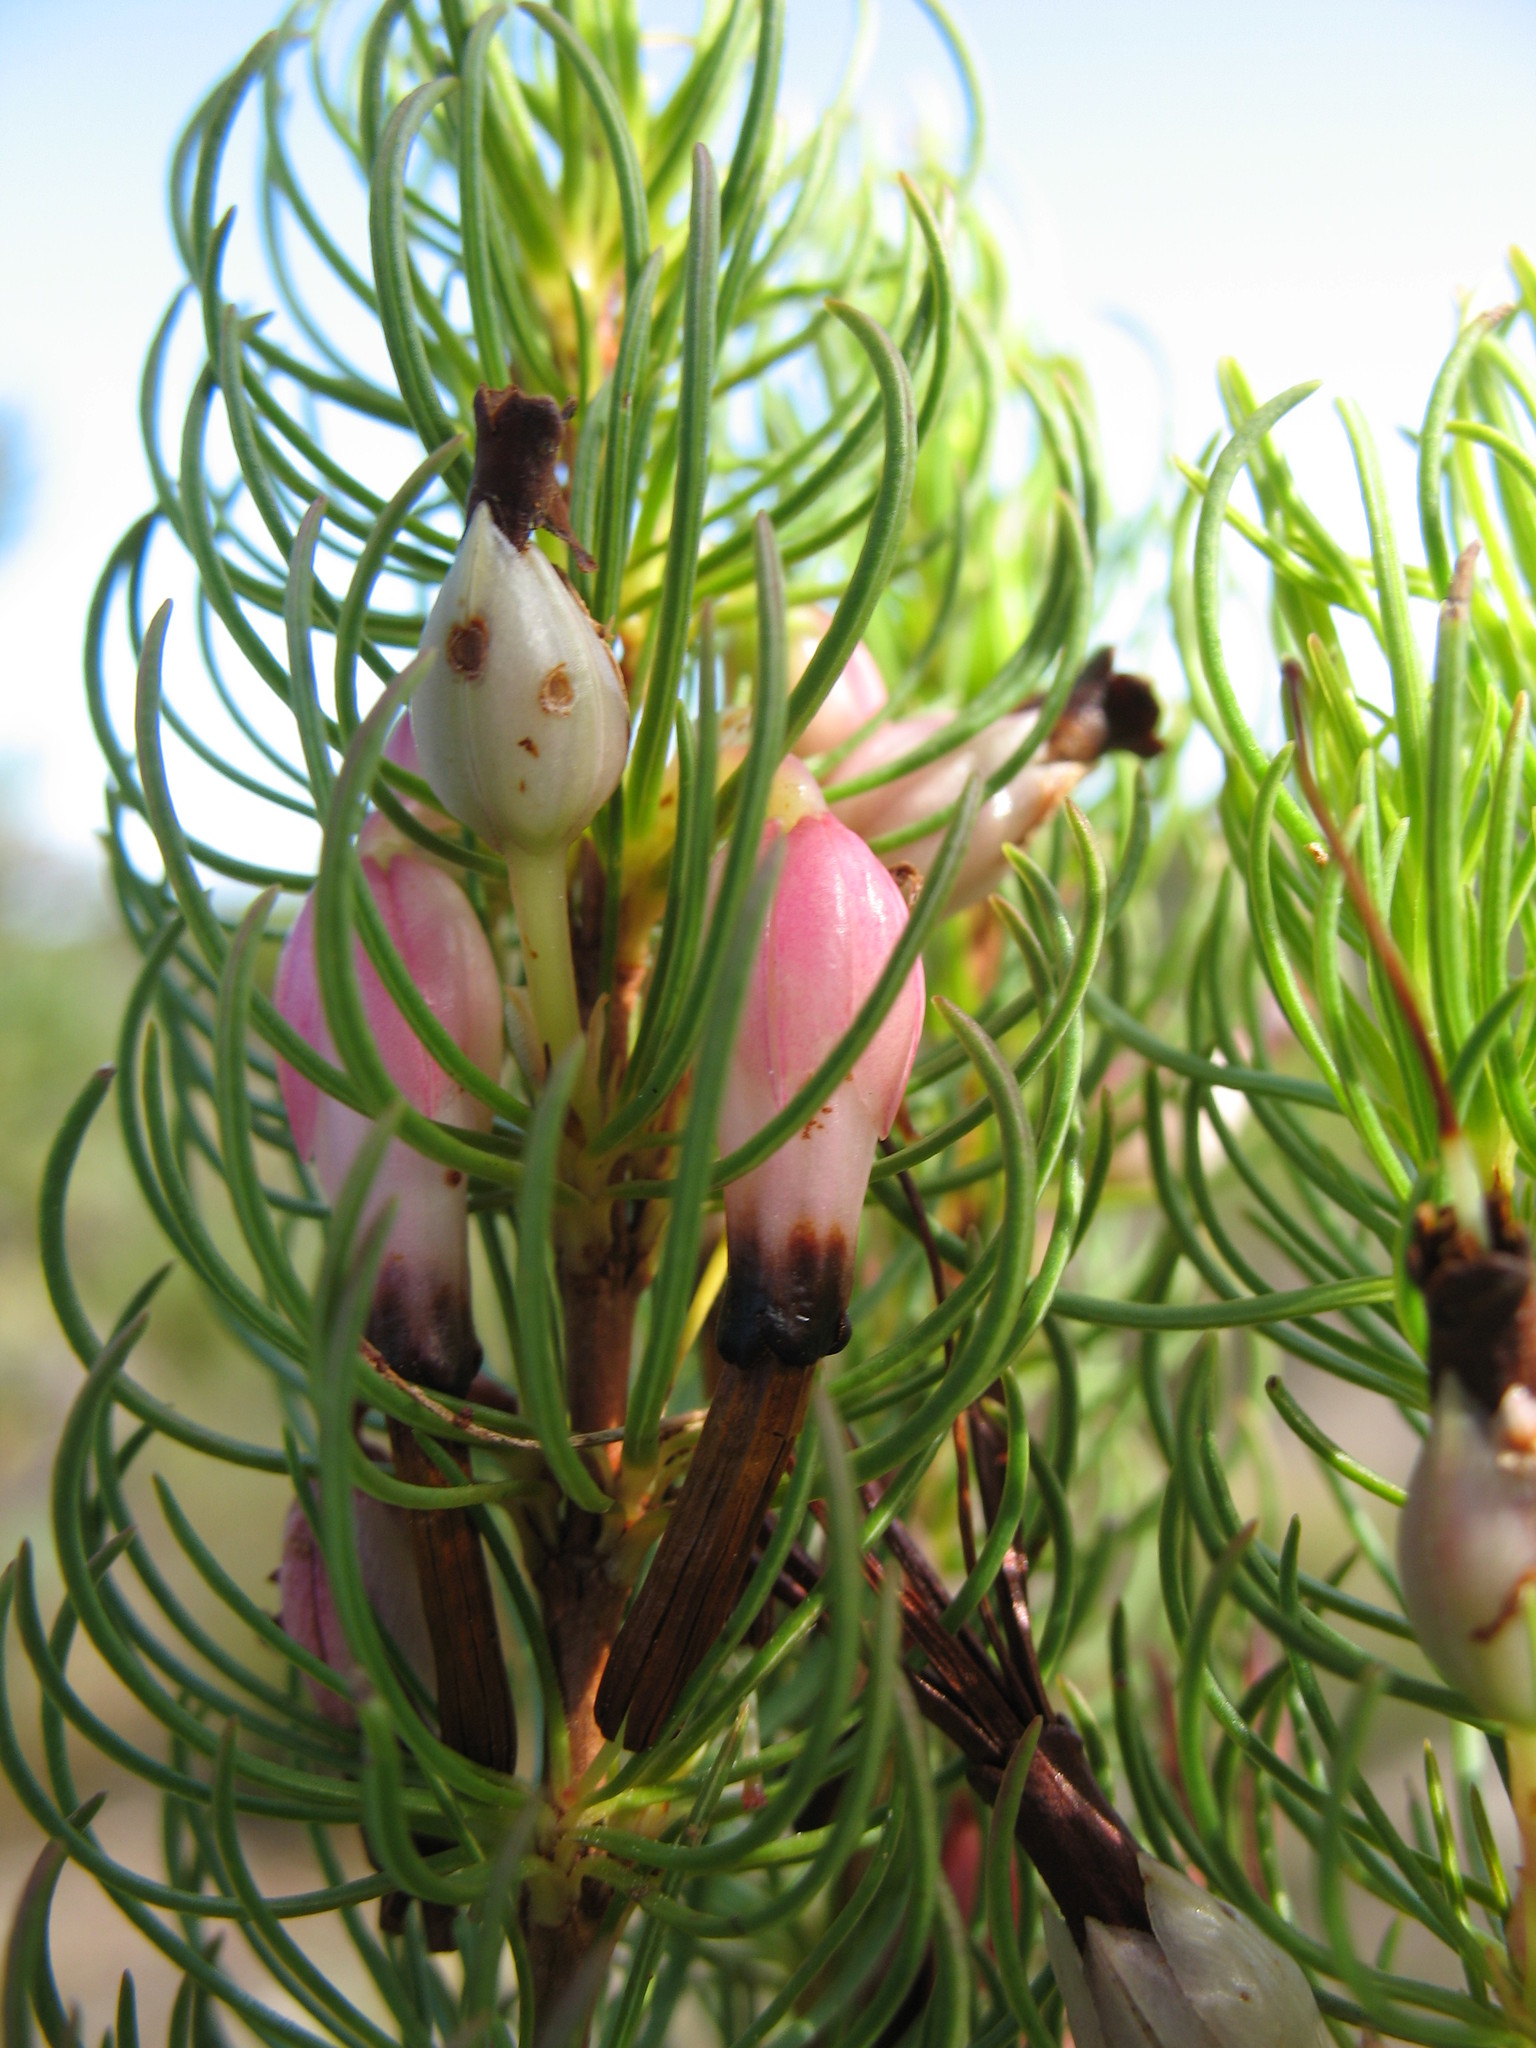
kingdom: Plantae
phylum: Tracheophyta
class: Magnoliopsida
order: Ericales
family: Ericaceae
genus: Erica
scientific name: Erica plukenetii
